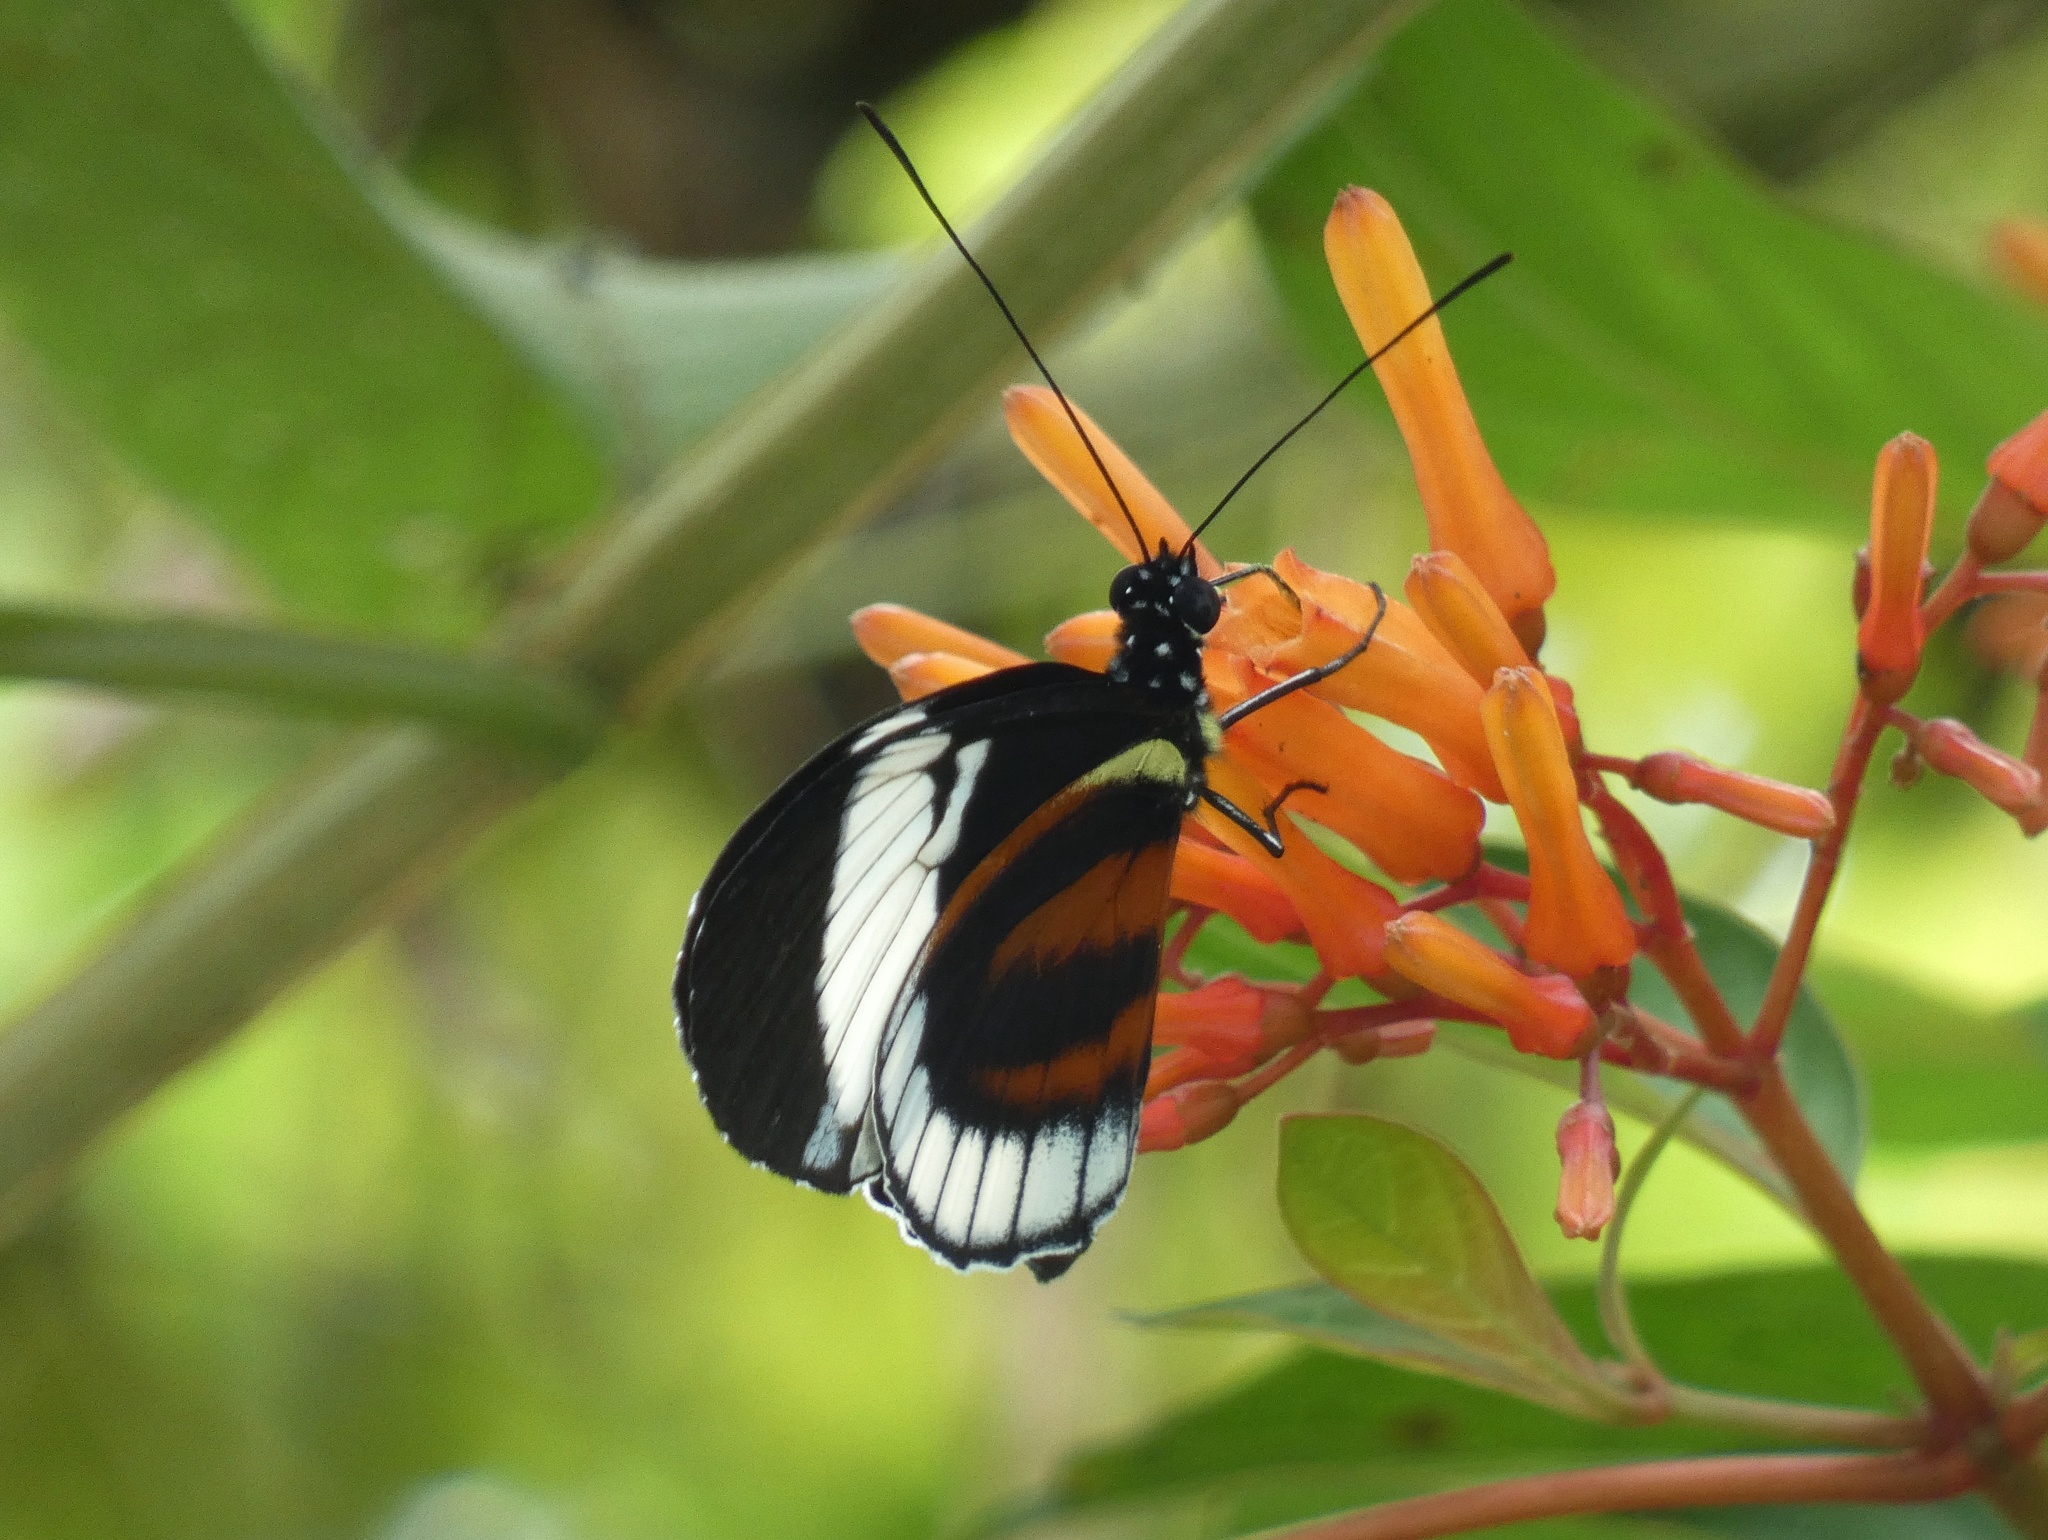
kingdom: Animalia
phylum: Arthropoda
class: Insecta
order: Lepidoptera
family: Nymphalidae
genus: Heliconius
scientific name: Heliconius cydno
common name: Cydno longwing
